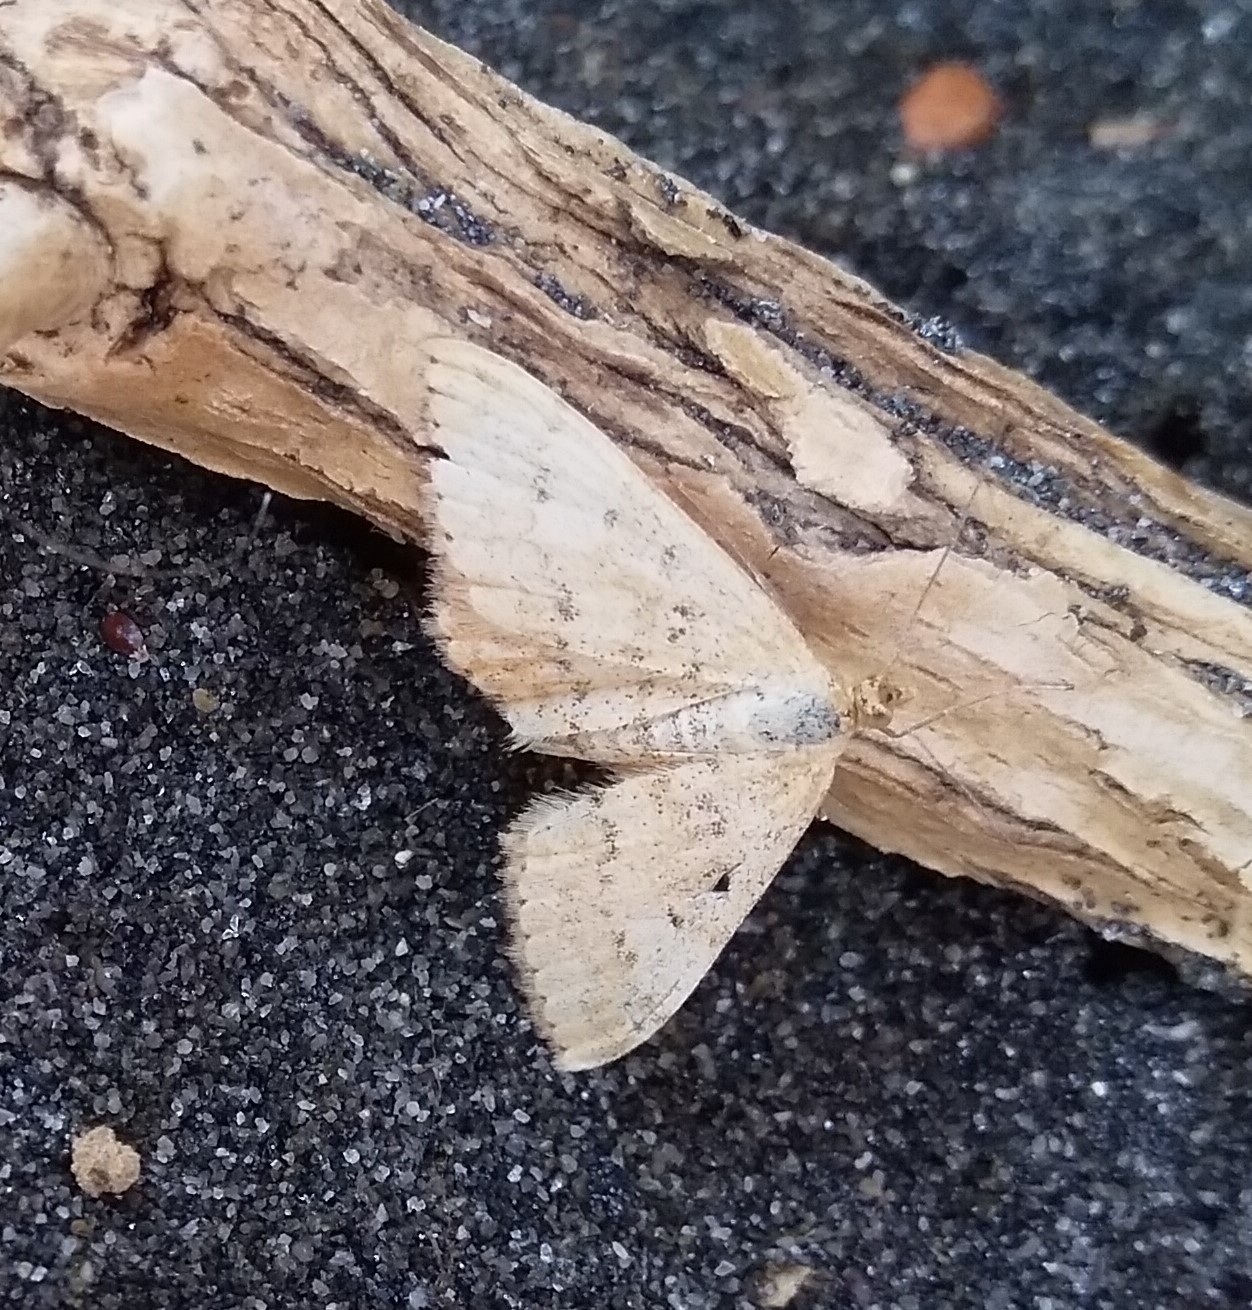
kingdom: Animalia
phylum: Arthropoda
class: Insecta
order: Lepidoptera
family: Geometridae
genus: Scopula
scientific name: Scopula rubraria
